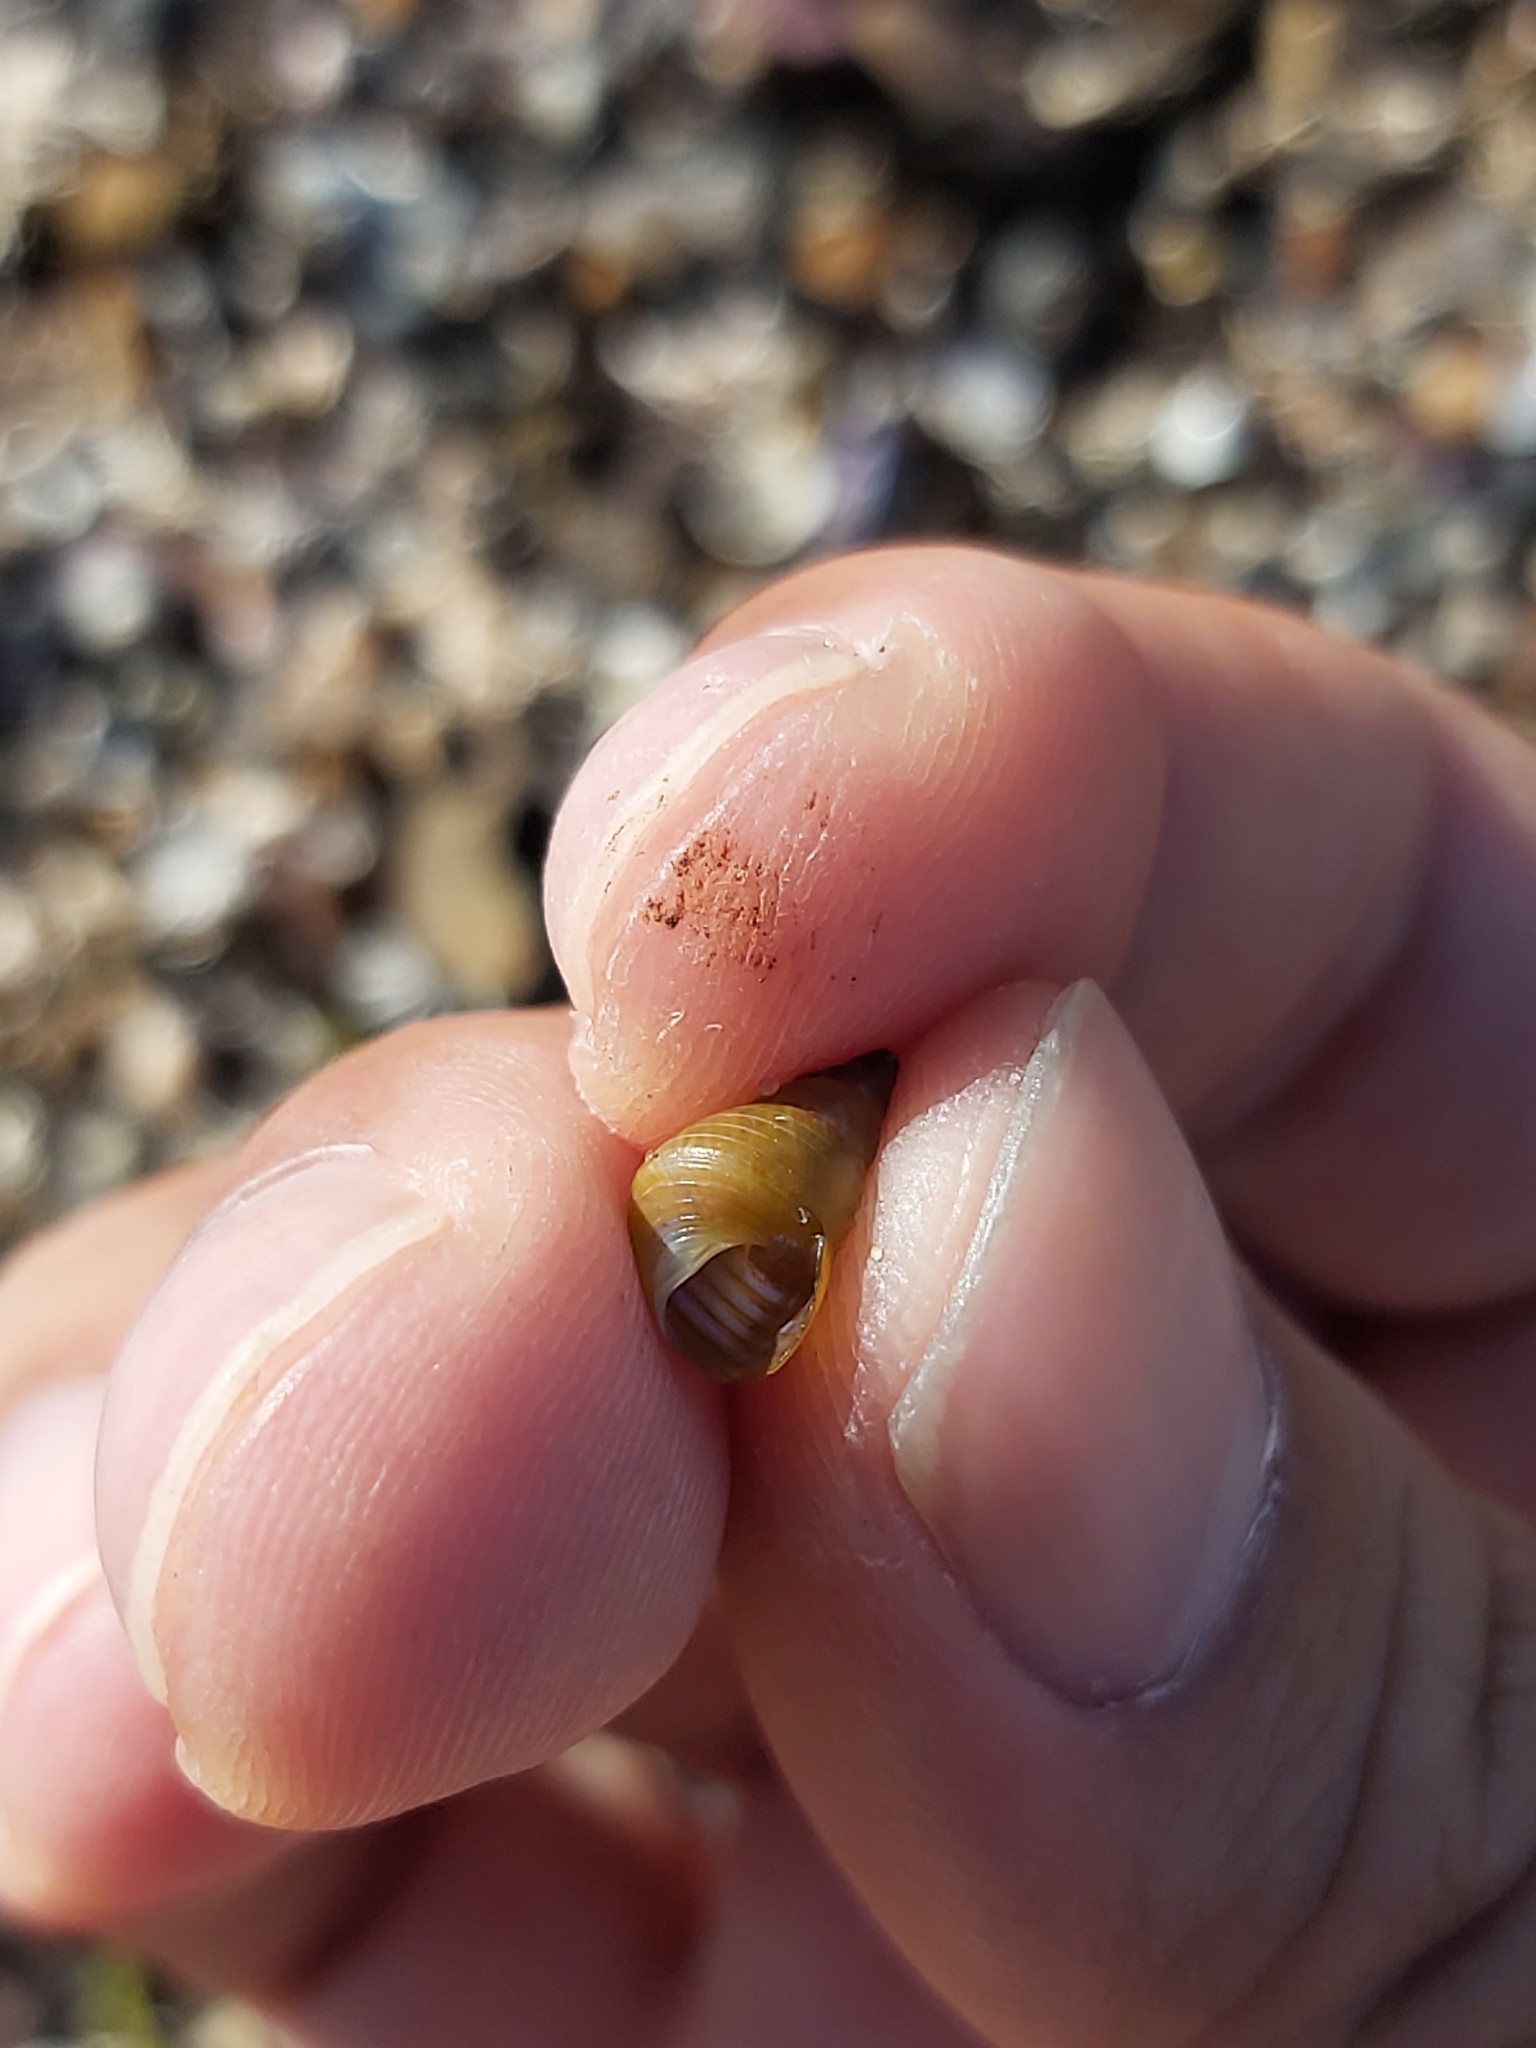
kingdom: Animalia
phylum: Mollusca
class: Gastropoda
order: Trochida
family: Trochidae
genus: Phasianotrochus
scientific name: Phasianotrochus eximius
